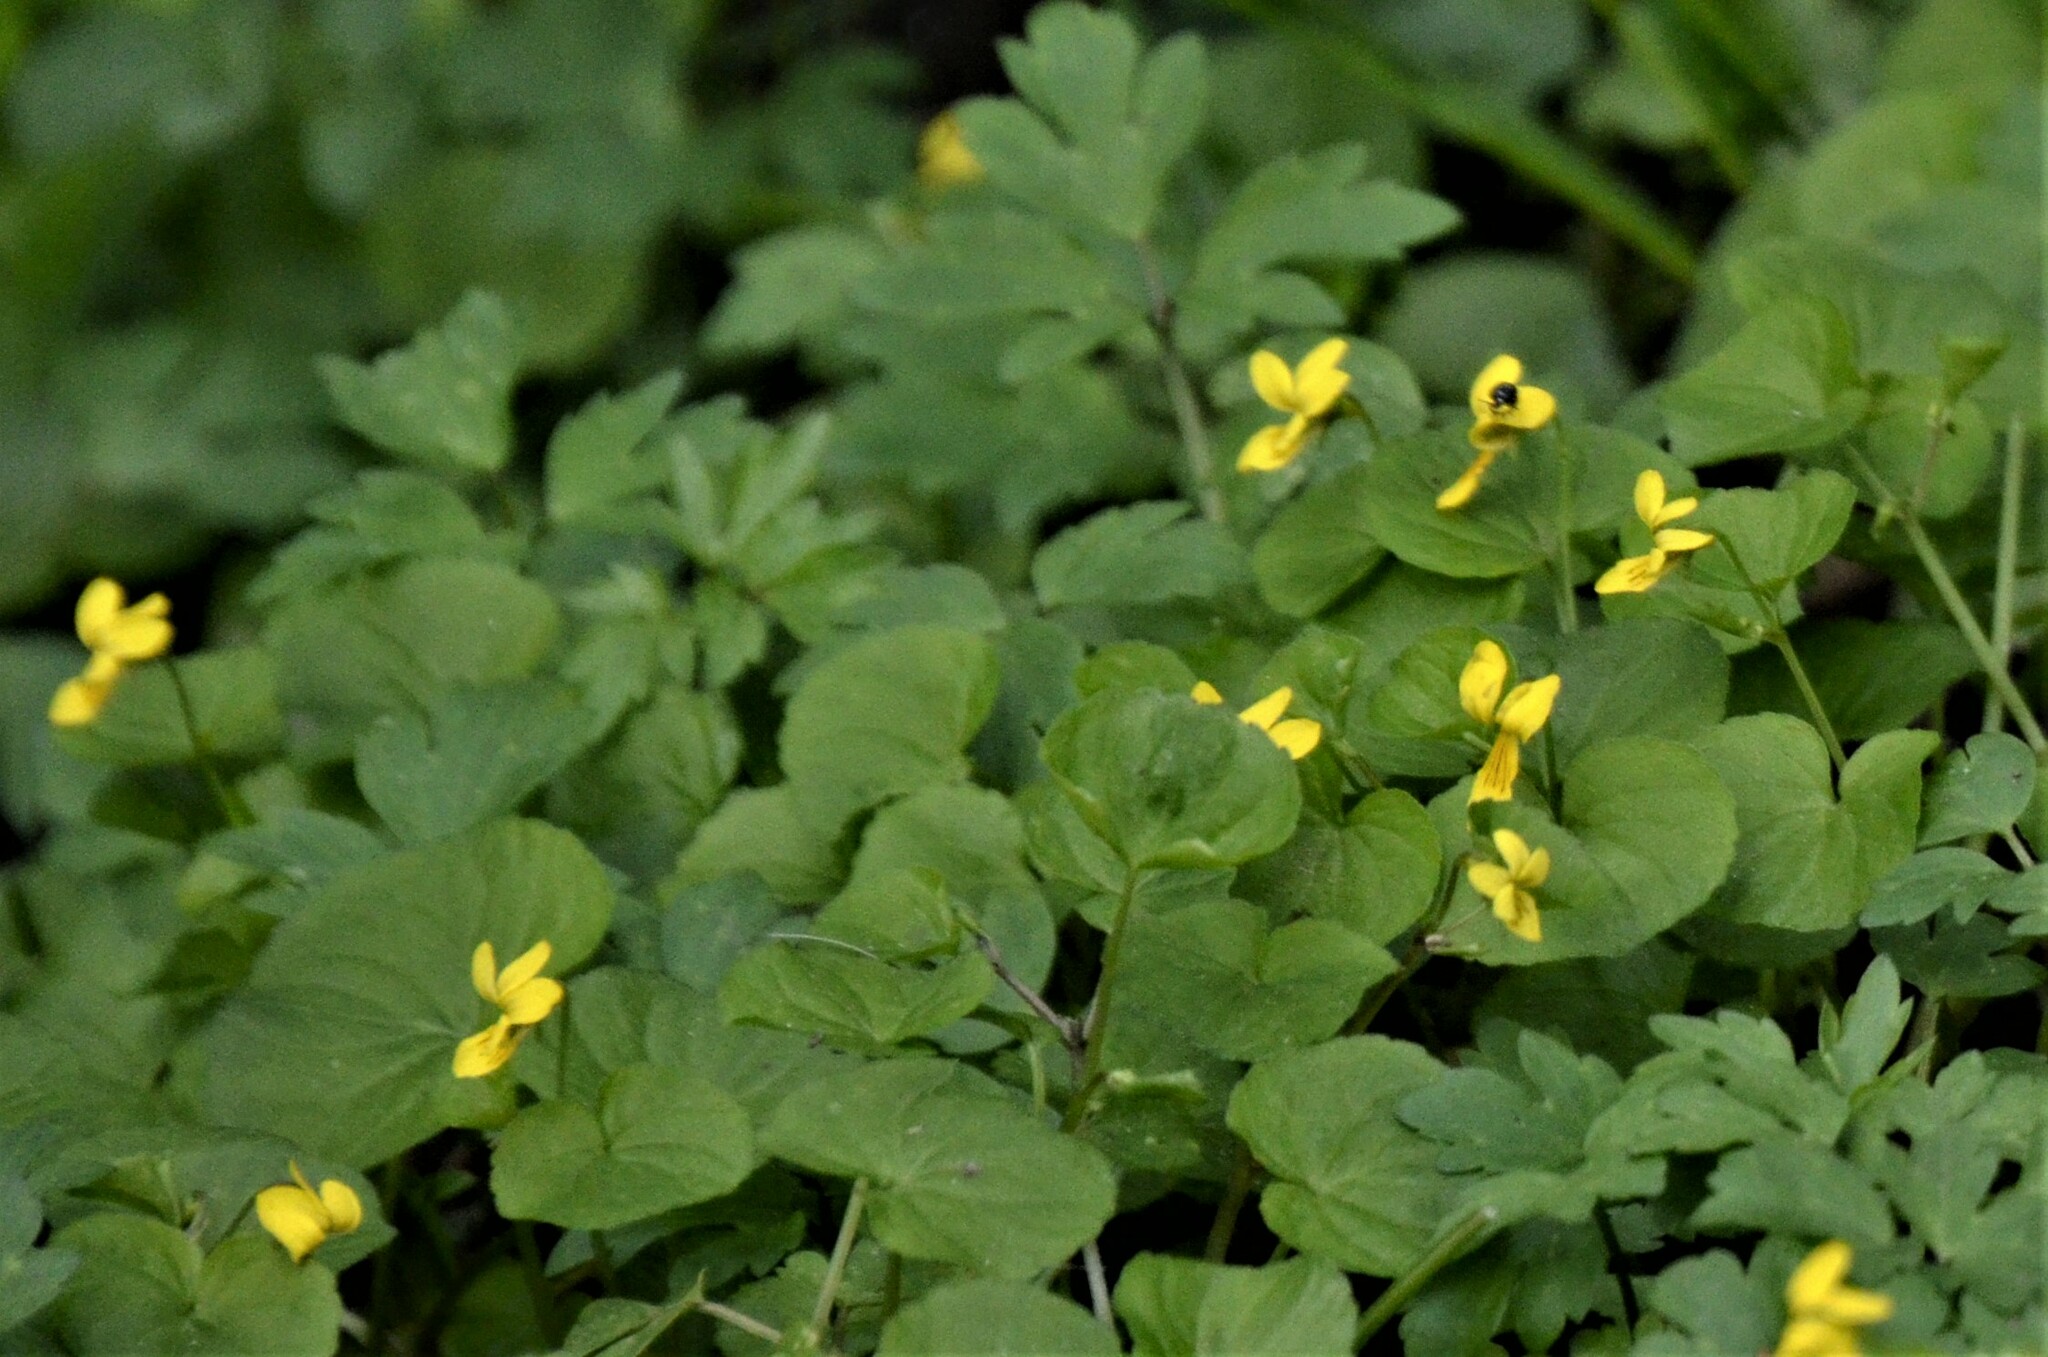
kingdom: Plantae
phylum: Tracheophyta
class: Magnoliopsida
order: Malpighiales
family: Violaceae
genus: Viola
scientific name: Viola biflora
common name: Alpine yellow violet
